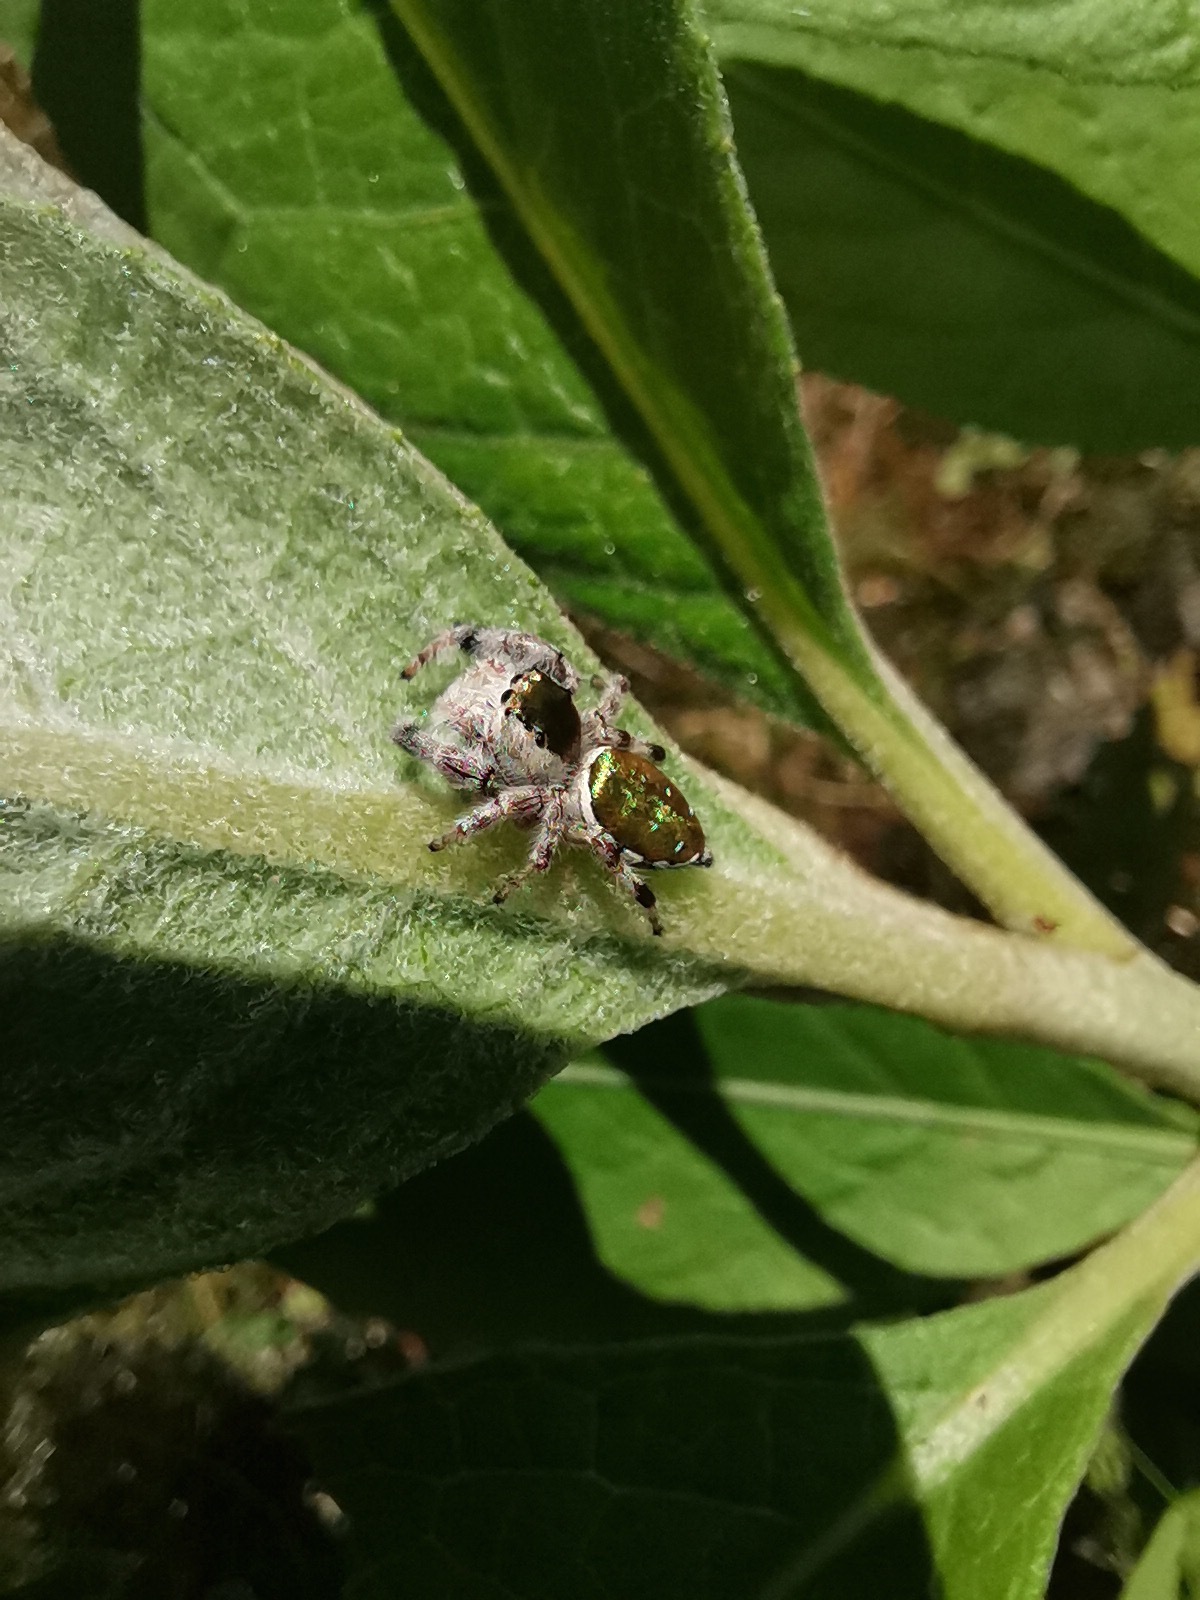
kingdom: Animalia
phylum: Arthropoda
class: Arachnida
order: Araneae
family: Salticidae
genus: Paraphidippus
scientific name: Paraphidippus aurantius
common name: Jumping spiders
